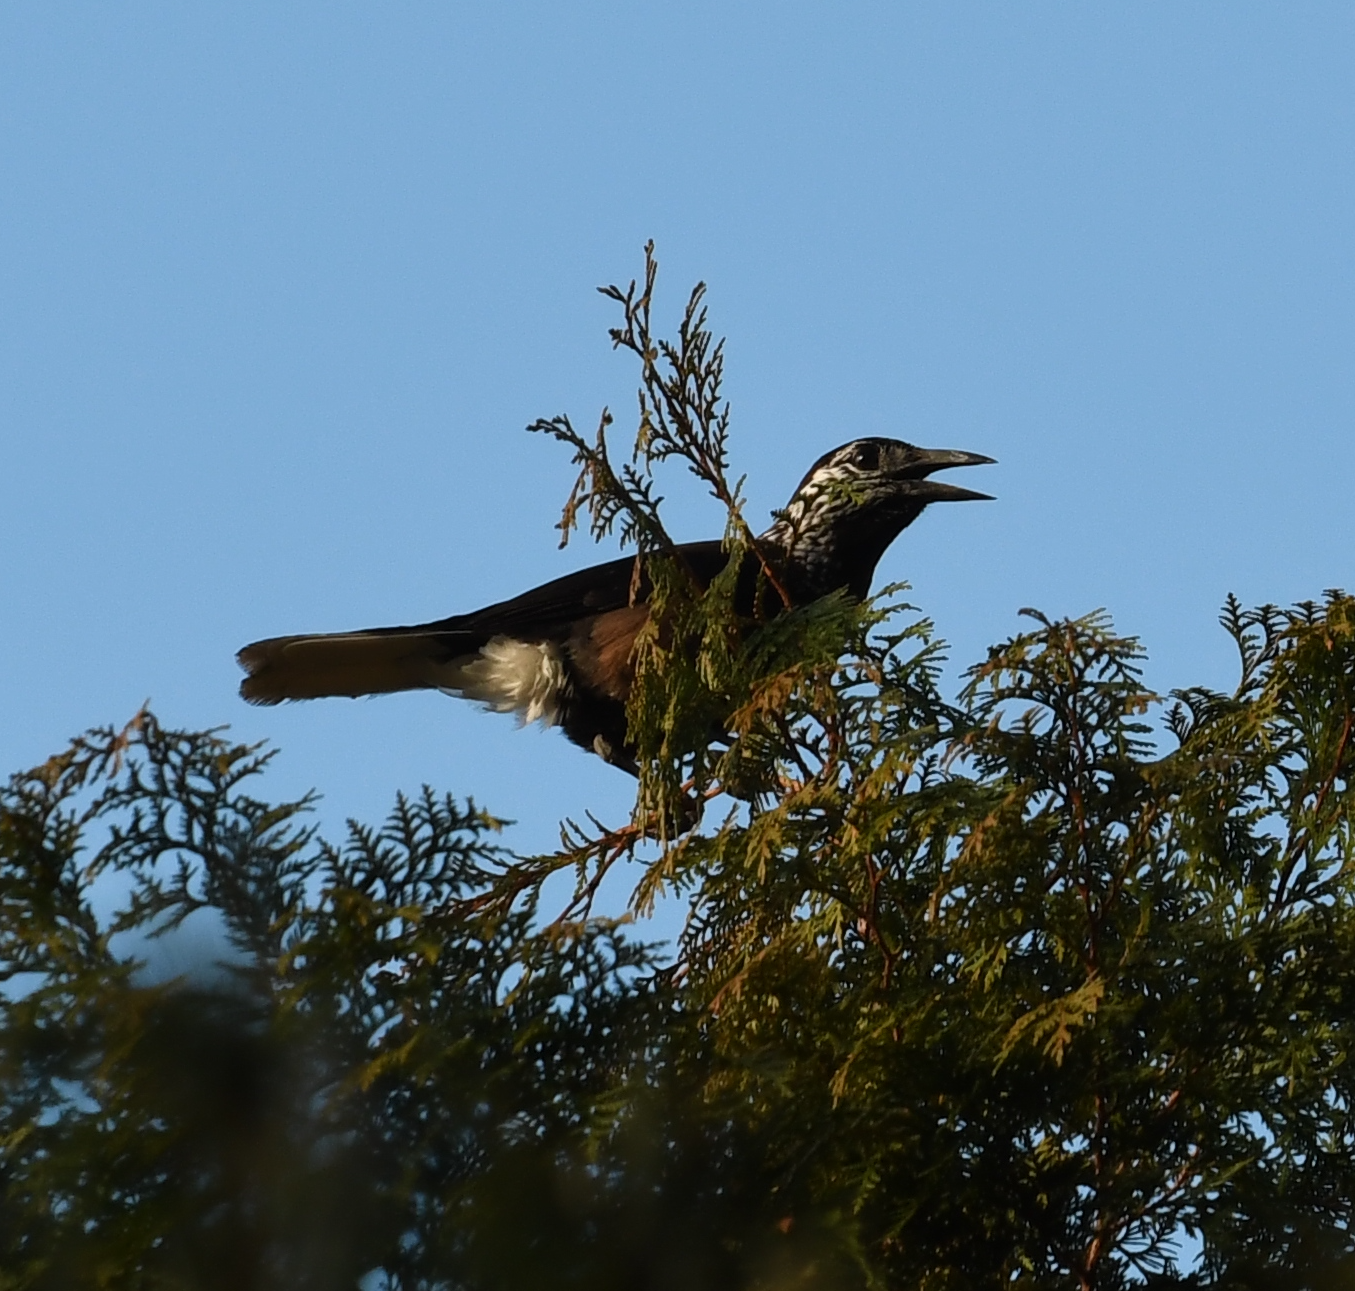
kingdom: Animalia
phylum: Chordata
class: Aves
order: Passeriformes
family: Corvidae
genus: Nucifraga
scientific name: Nucifraga caryocatactes
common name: Spotted nutcracker
